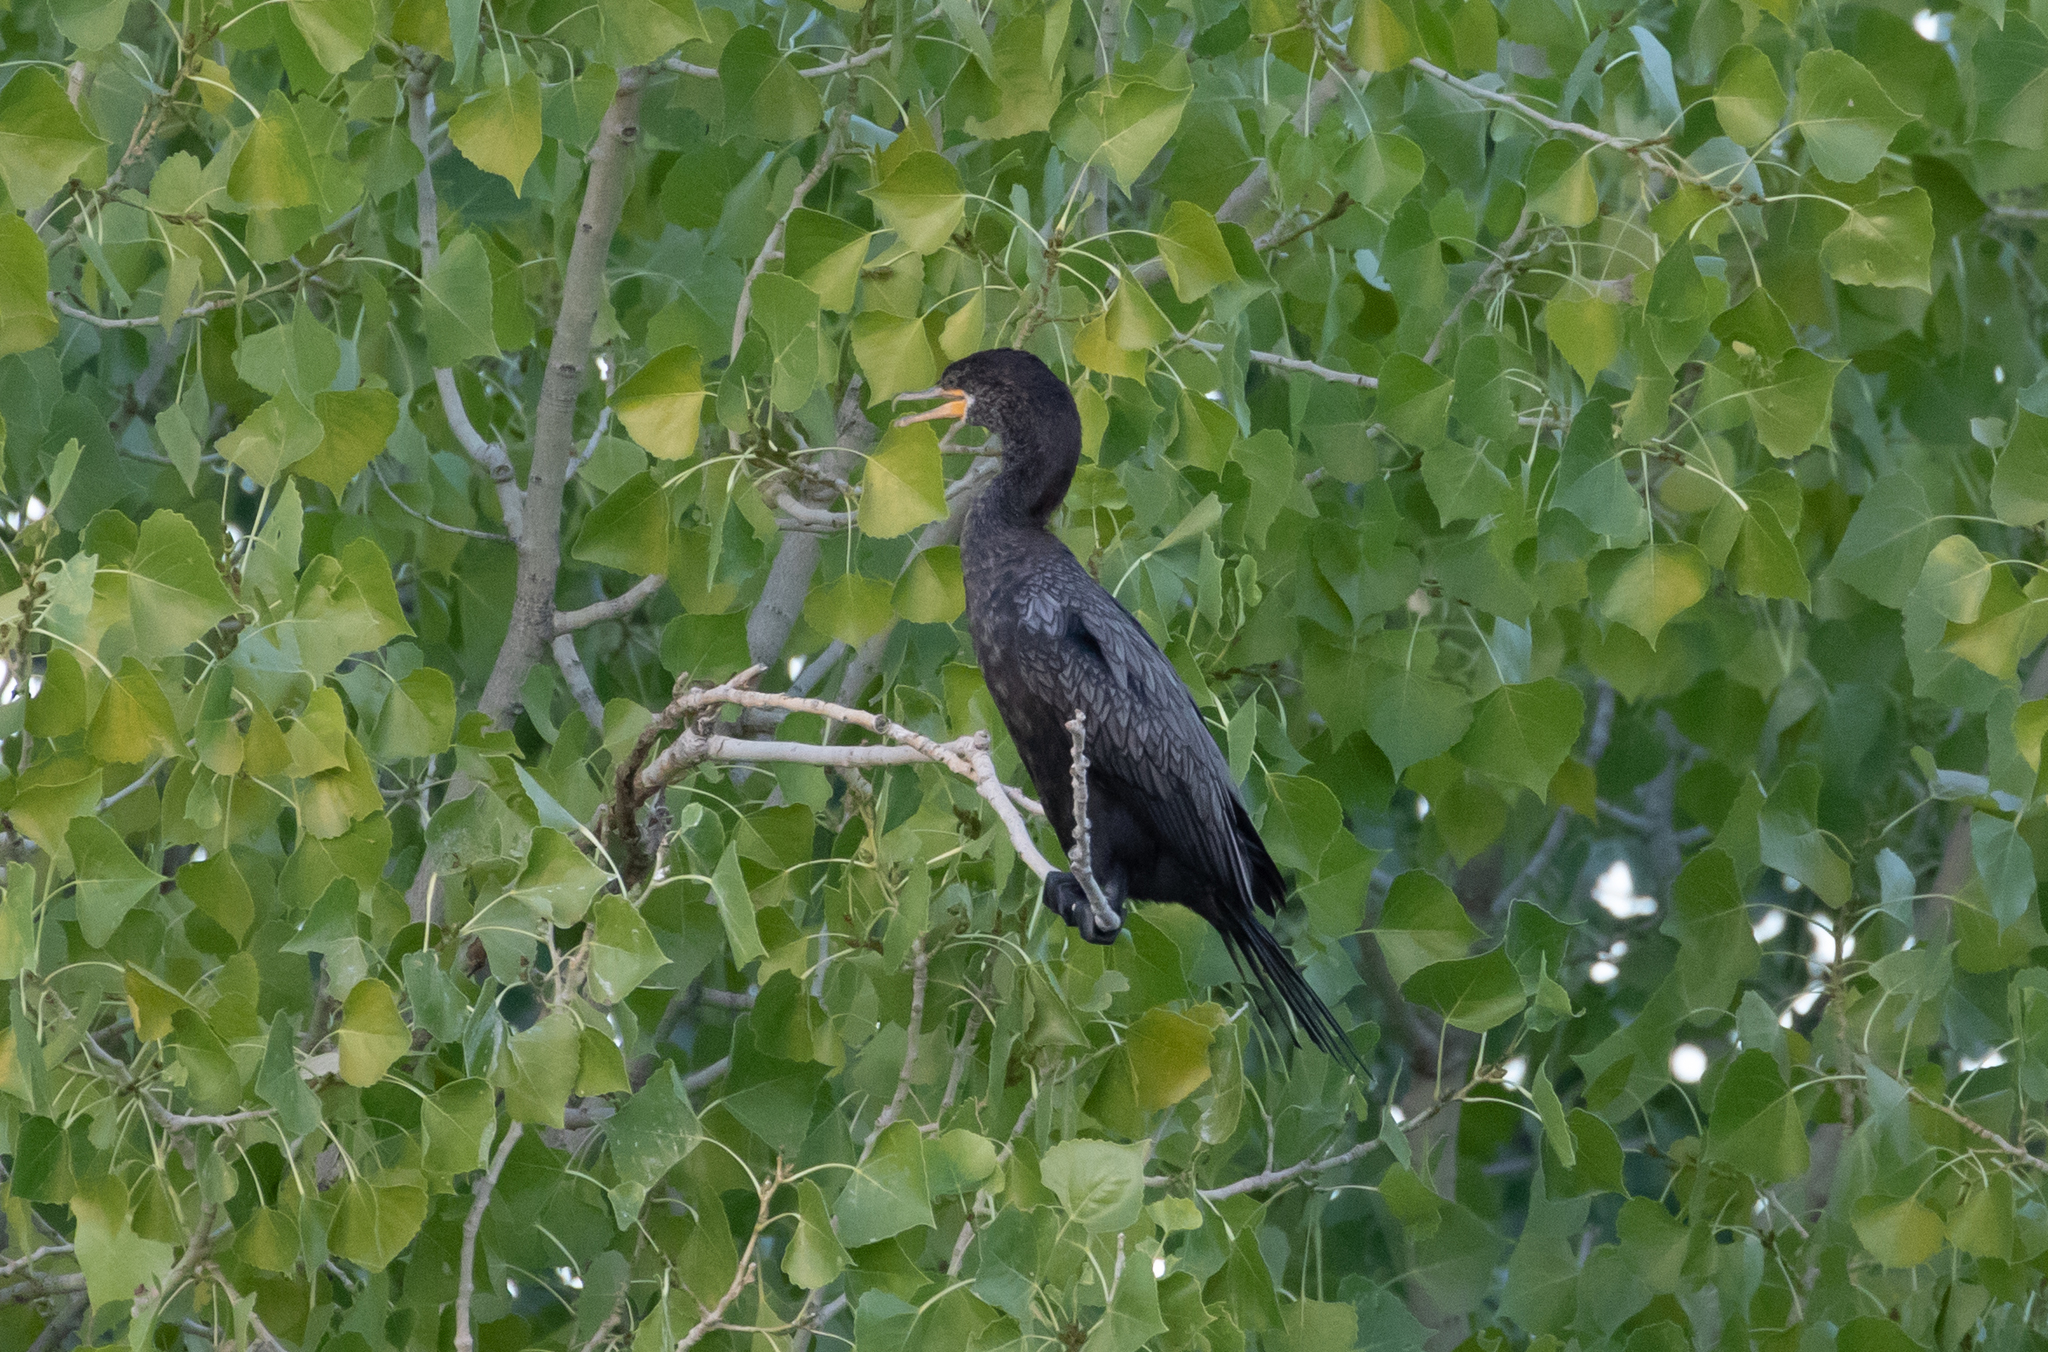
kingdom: Animalia
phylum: Chordata
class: Aves
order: Suliformes
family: Phalacrocoracidae
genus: Phalacrocorax
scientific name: Phalacrocorax brasilianus
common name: Neotropic cormorant
